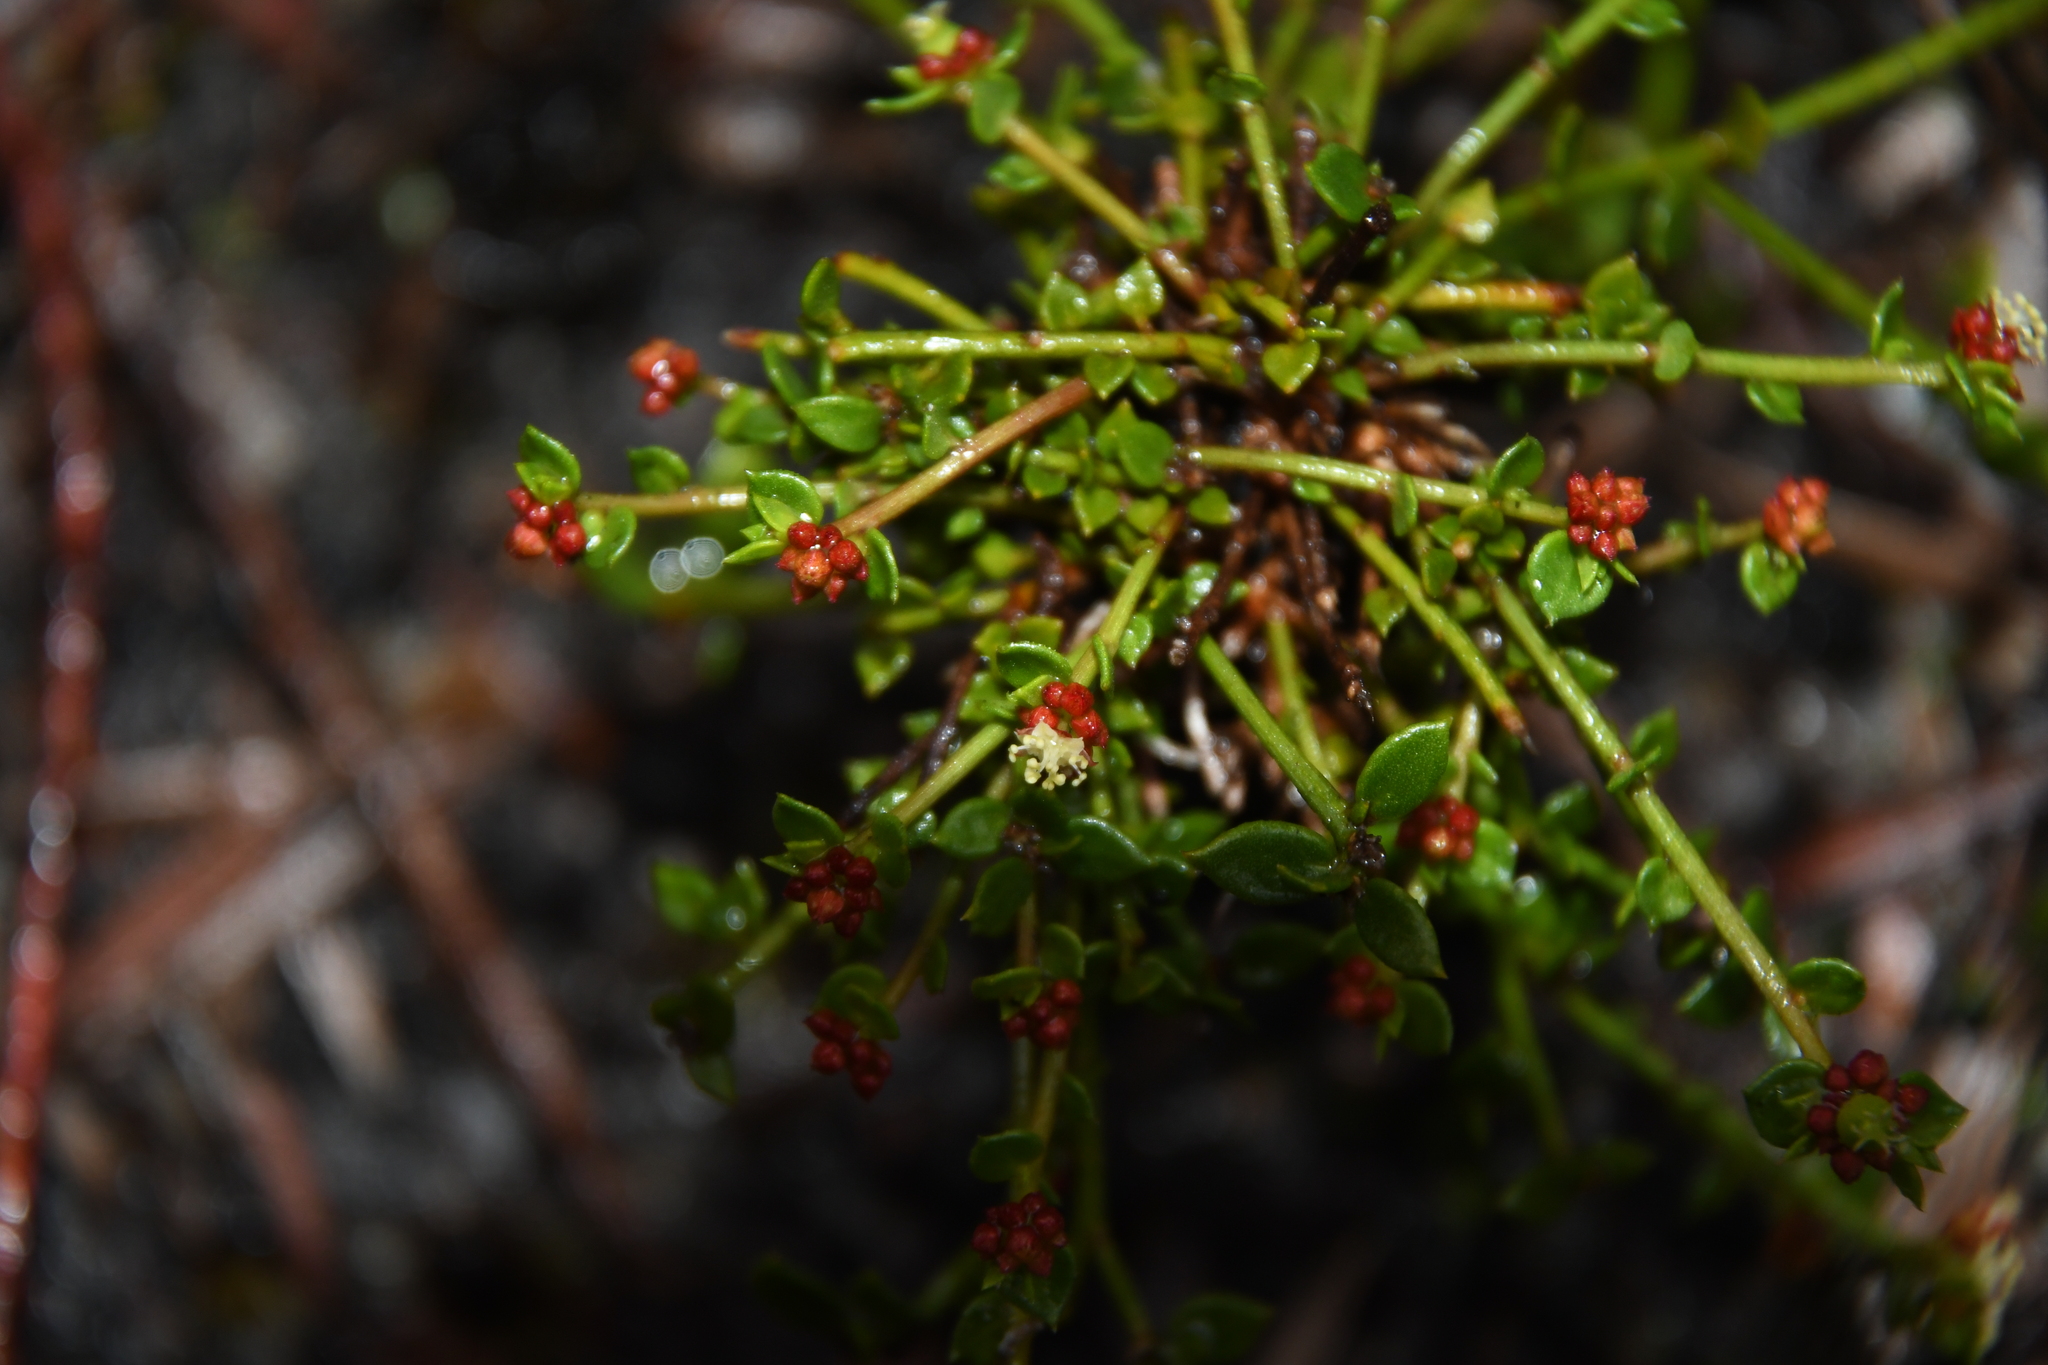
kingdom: Plantae
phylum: Tracheophyta
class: Magnoliopsida
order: Malpighiales
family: Euphorbiaceae
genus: Monotaxis
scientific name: Monotaxis occidentalis
